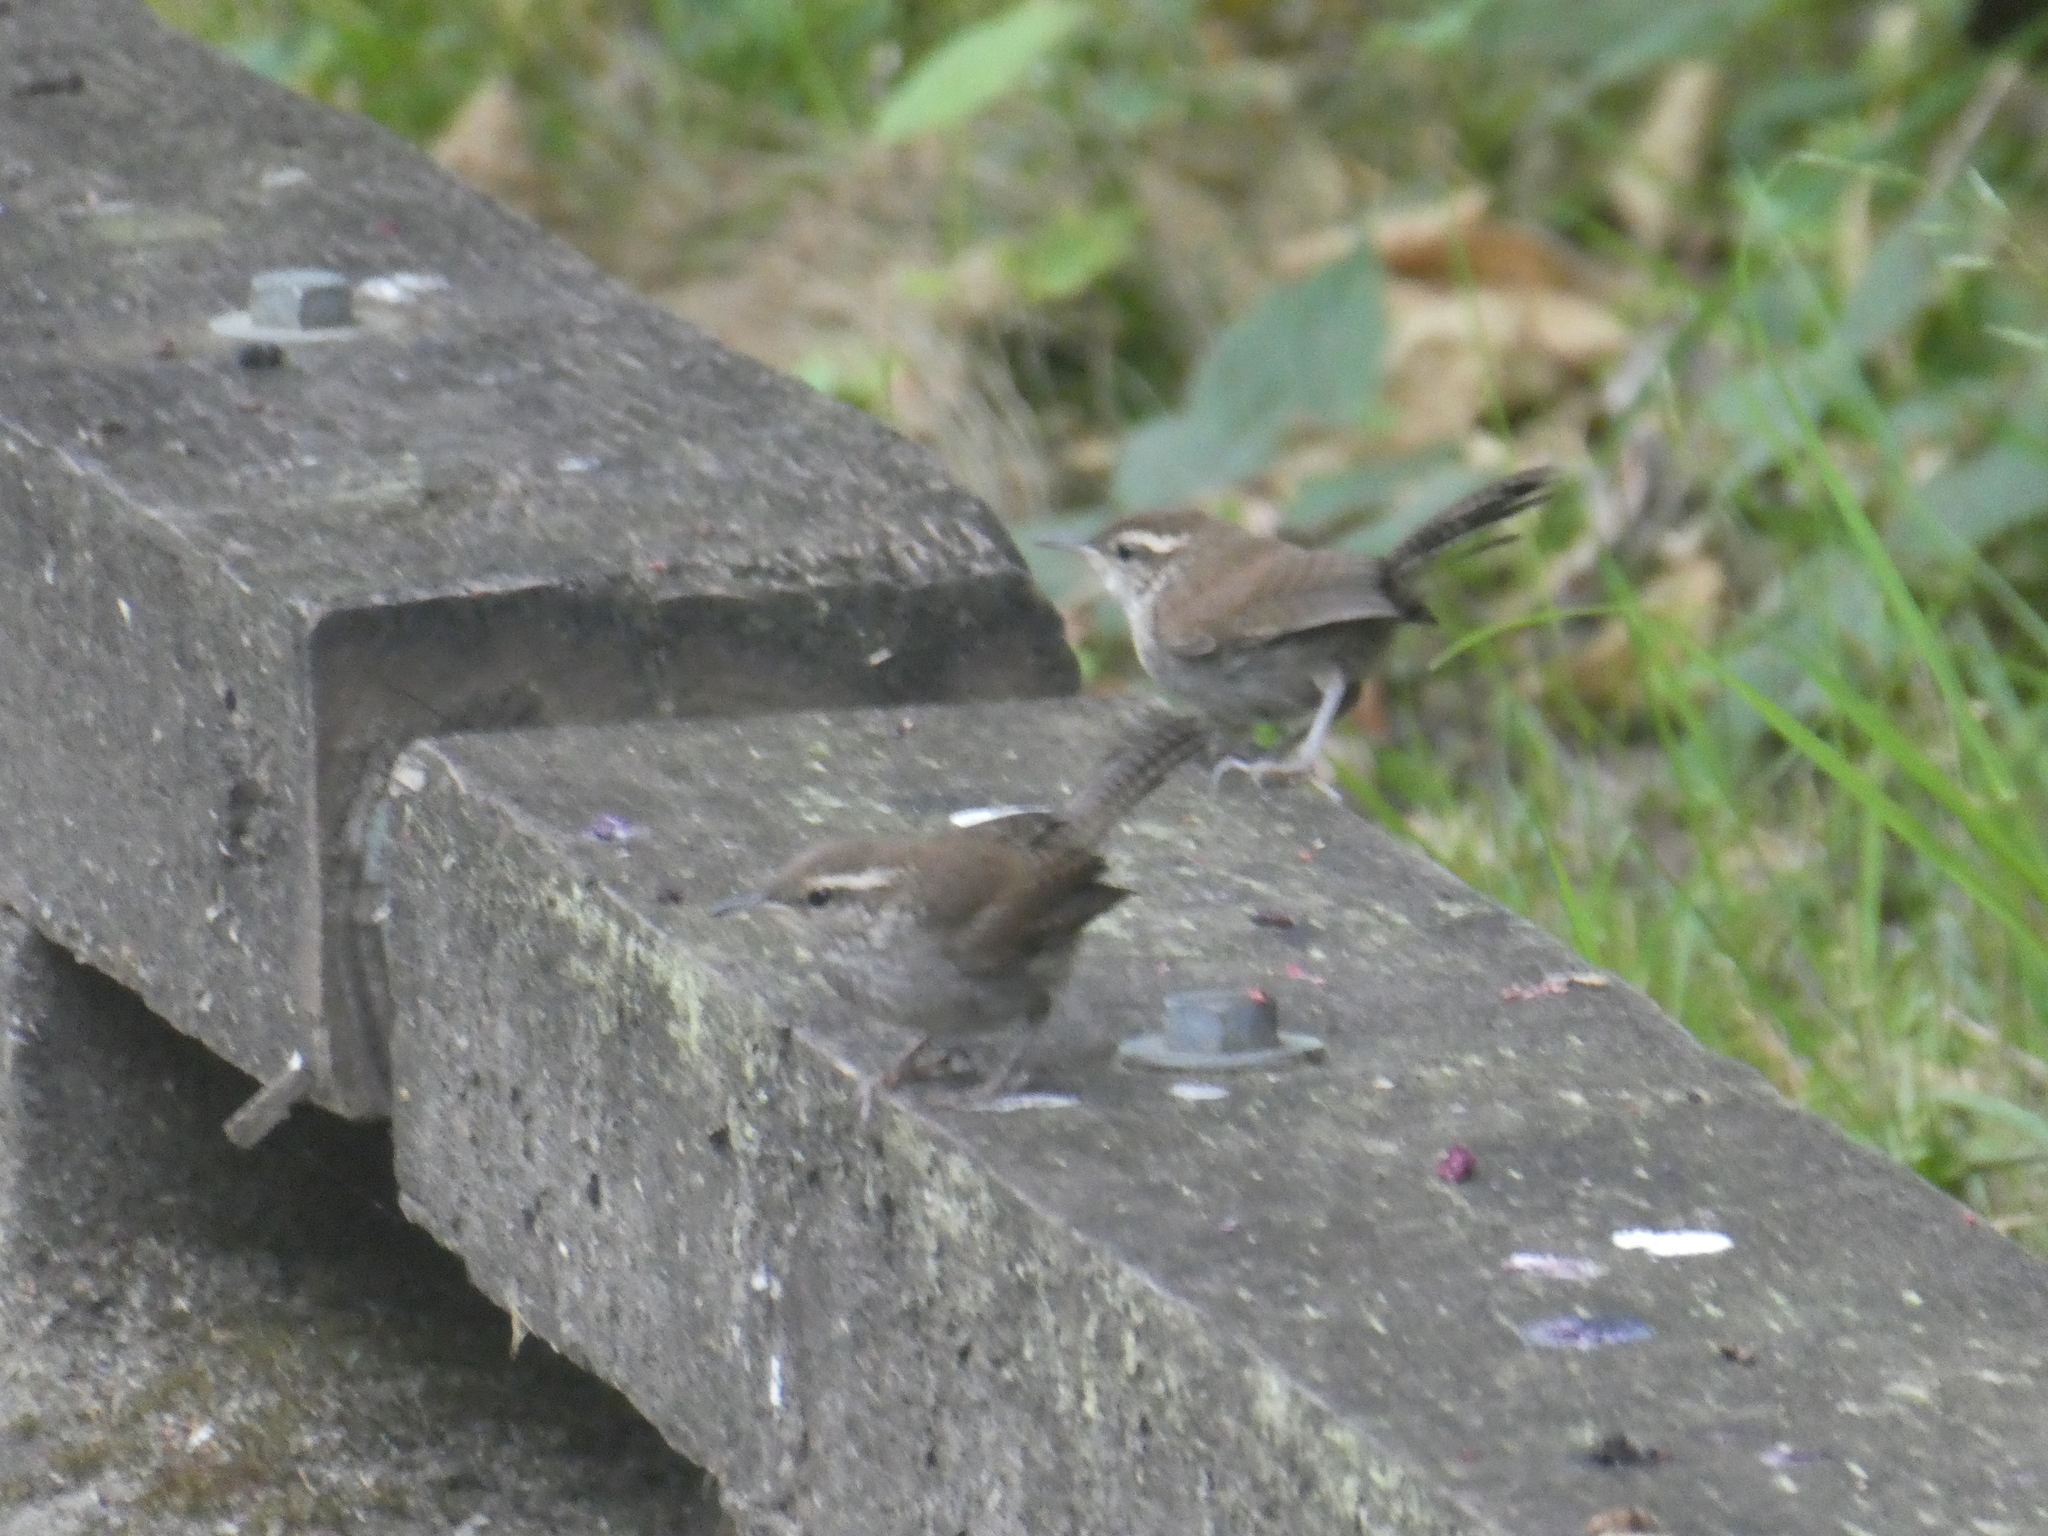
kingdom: Animalia
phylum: Chordata
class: Aves
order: Passeriformes
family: Troglodytidae
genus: Thryomanes
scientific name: Thryomanes bewickii
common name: Bewick's wren
